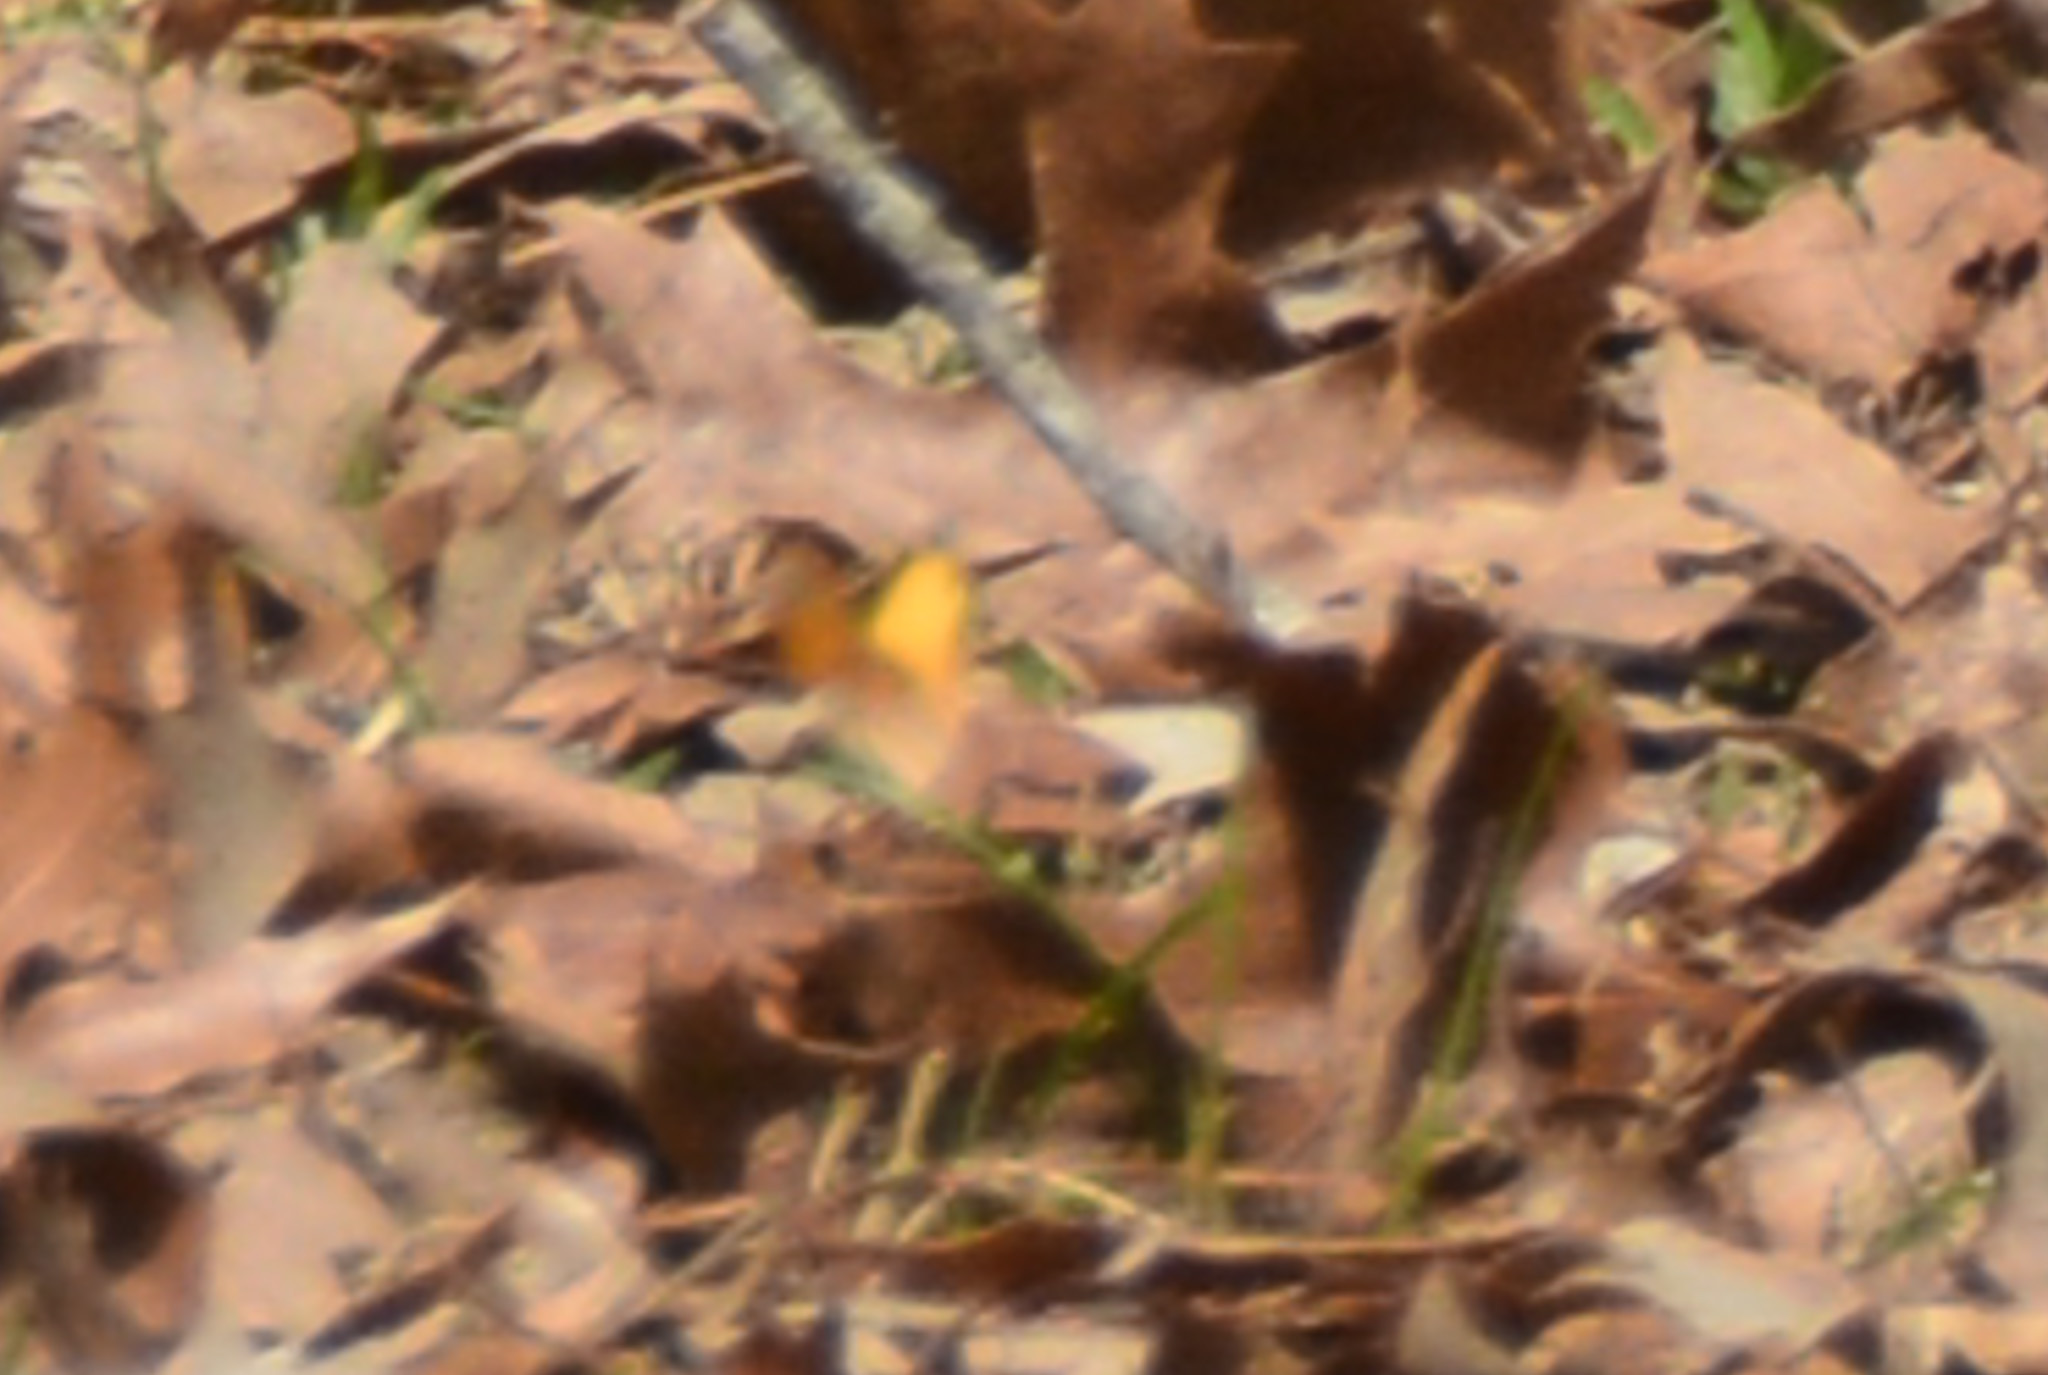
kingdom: Animalia
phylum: Arthropoda
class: Insecta
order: Lepidoptera
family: Pieridae
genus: Abaeis
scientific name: Abaeis nicippe
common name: Sleepy orange
